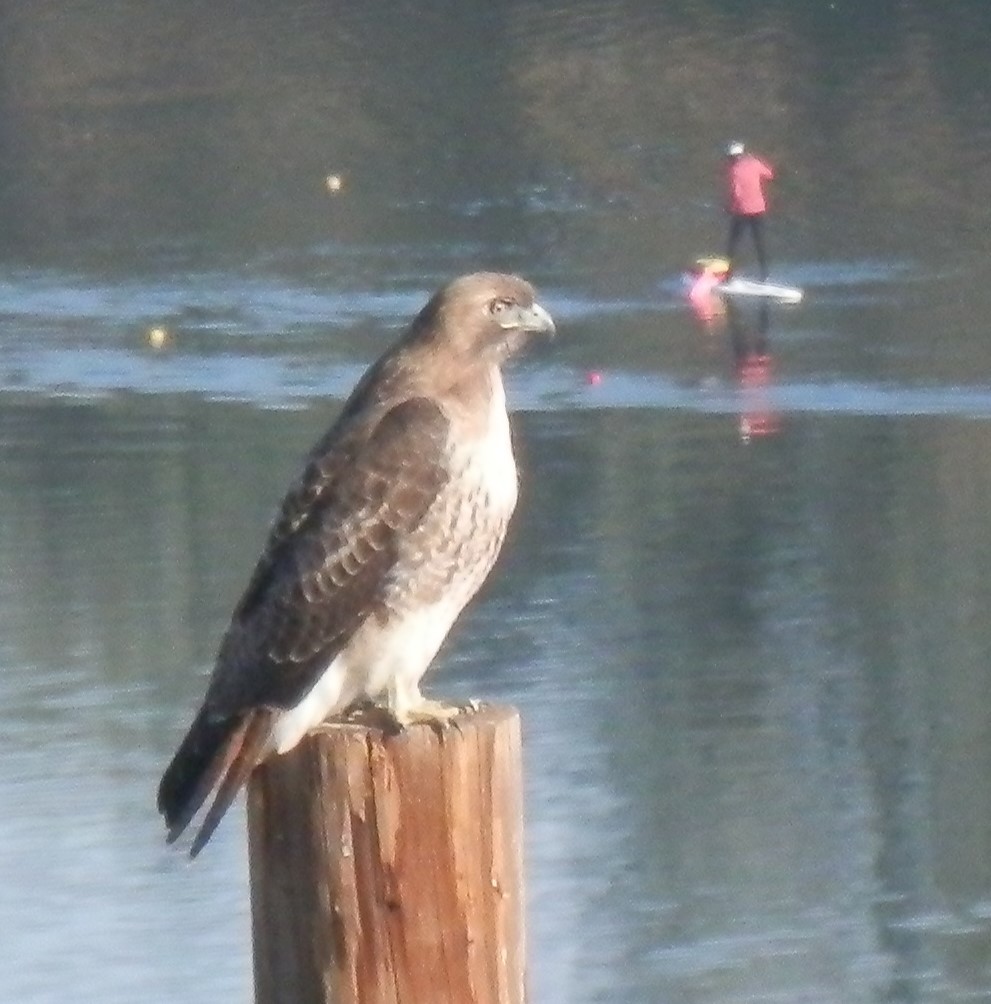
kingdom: Animalia
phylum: Chordata
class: Aves
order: Accipitriformes
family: Accipitridae
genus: Buteo
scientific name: Buteo jamaicensis
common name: Red-tailed hawk
